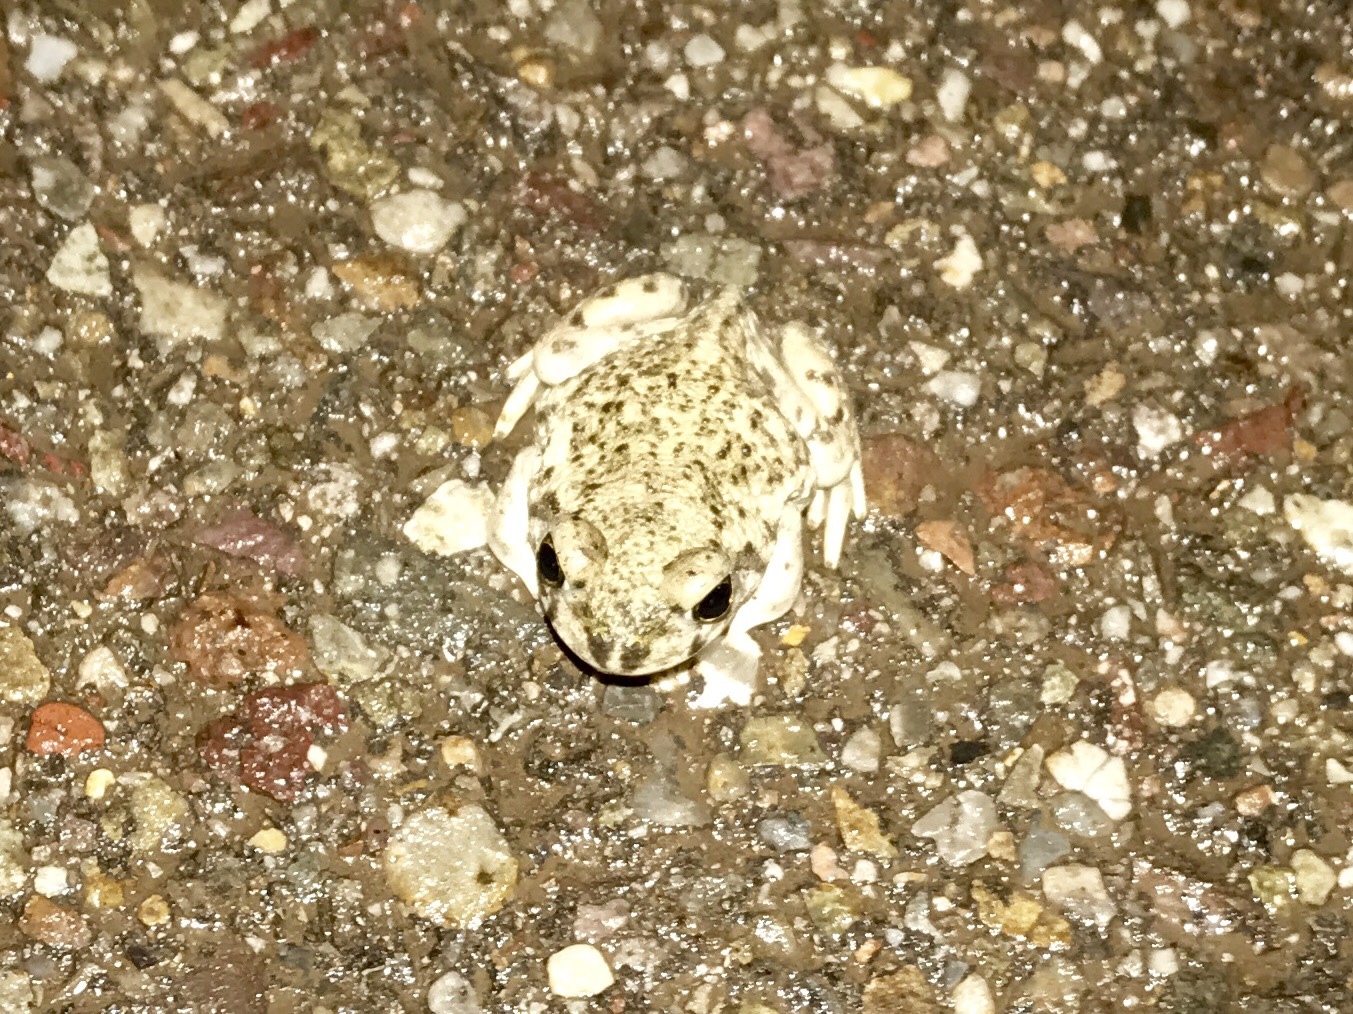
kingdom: Animalia
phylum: Chordata
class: Amphibia
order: Anura
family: Bufonidae
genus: Incilius
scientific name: Incilius alvarius
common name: Sonoran desert toad
